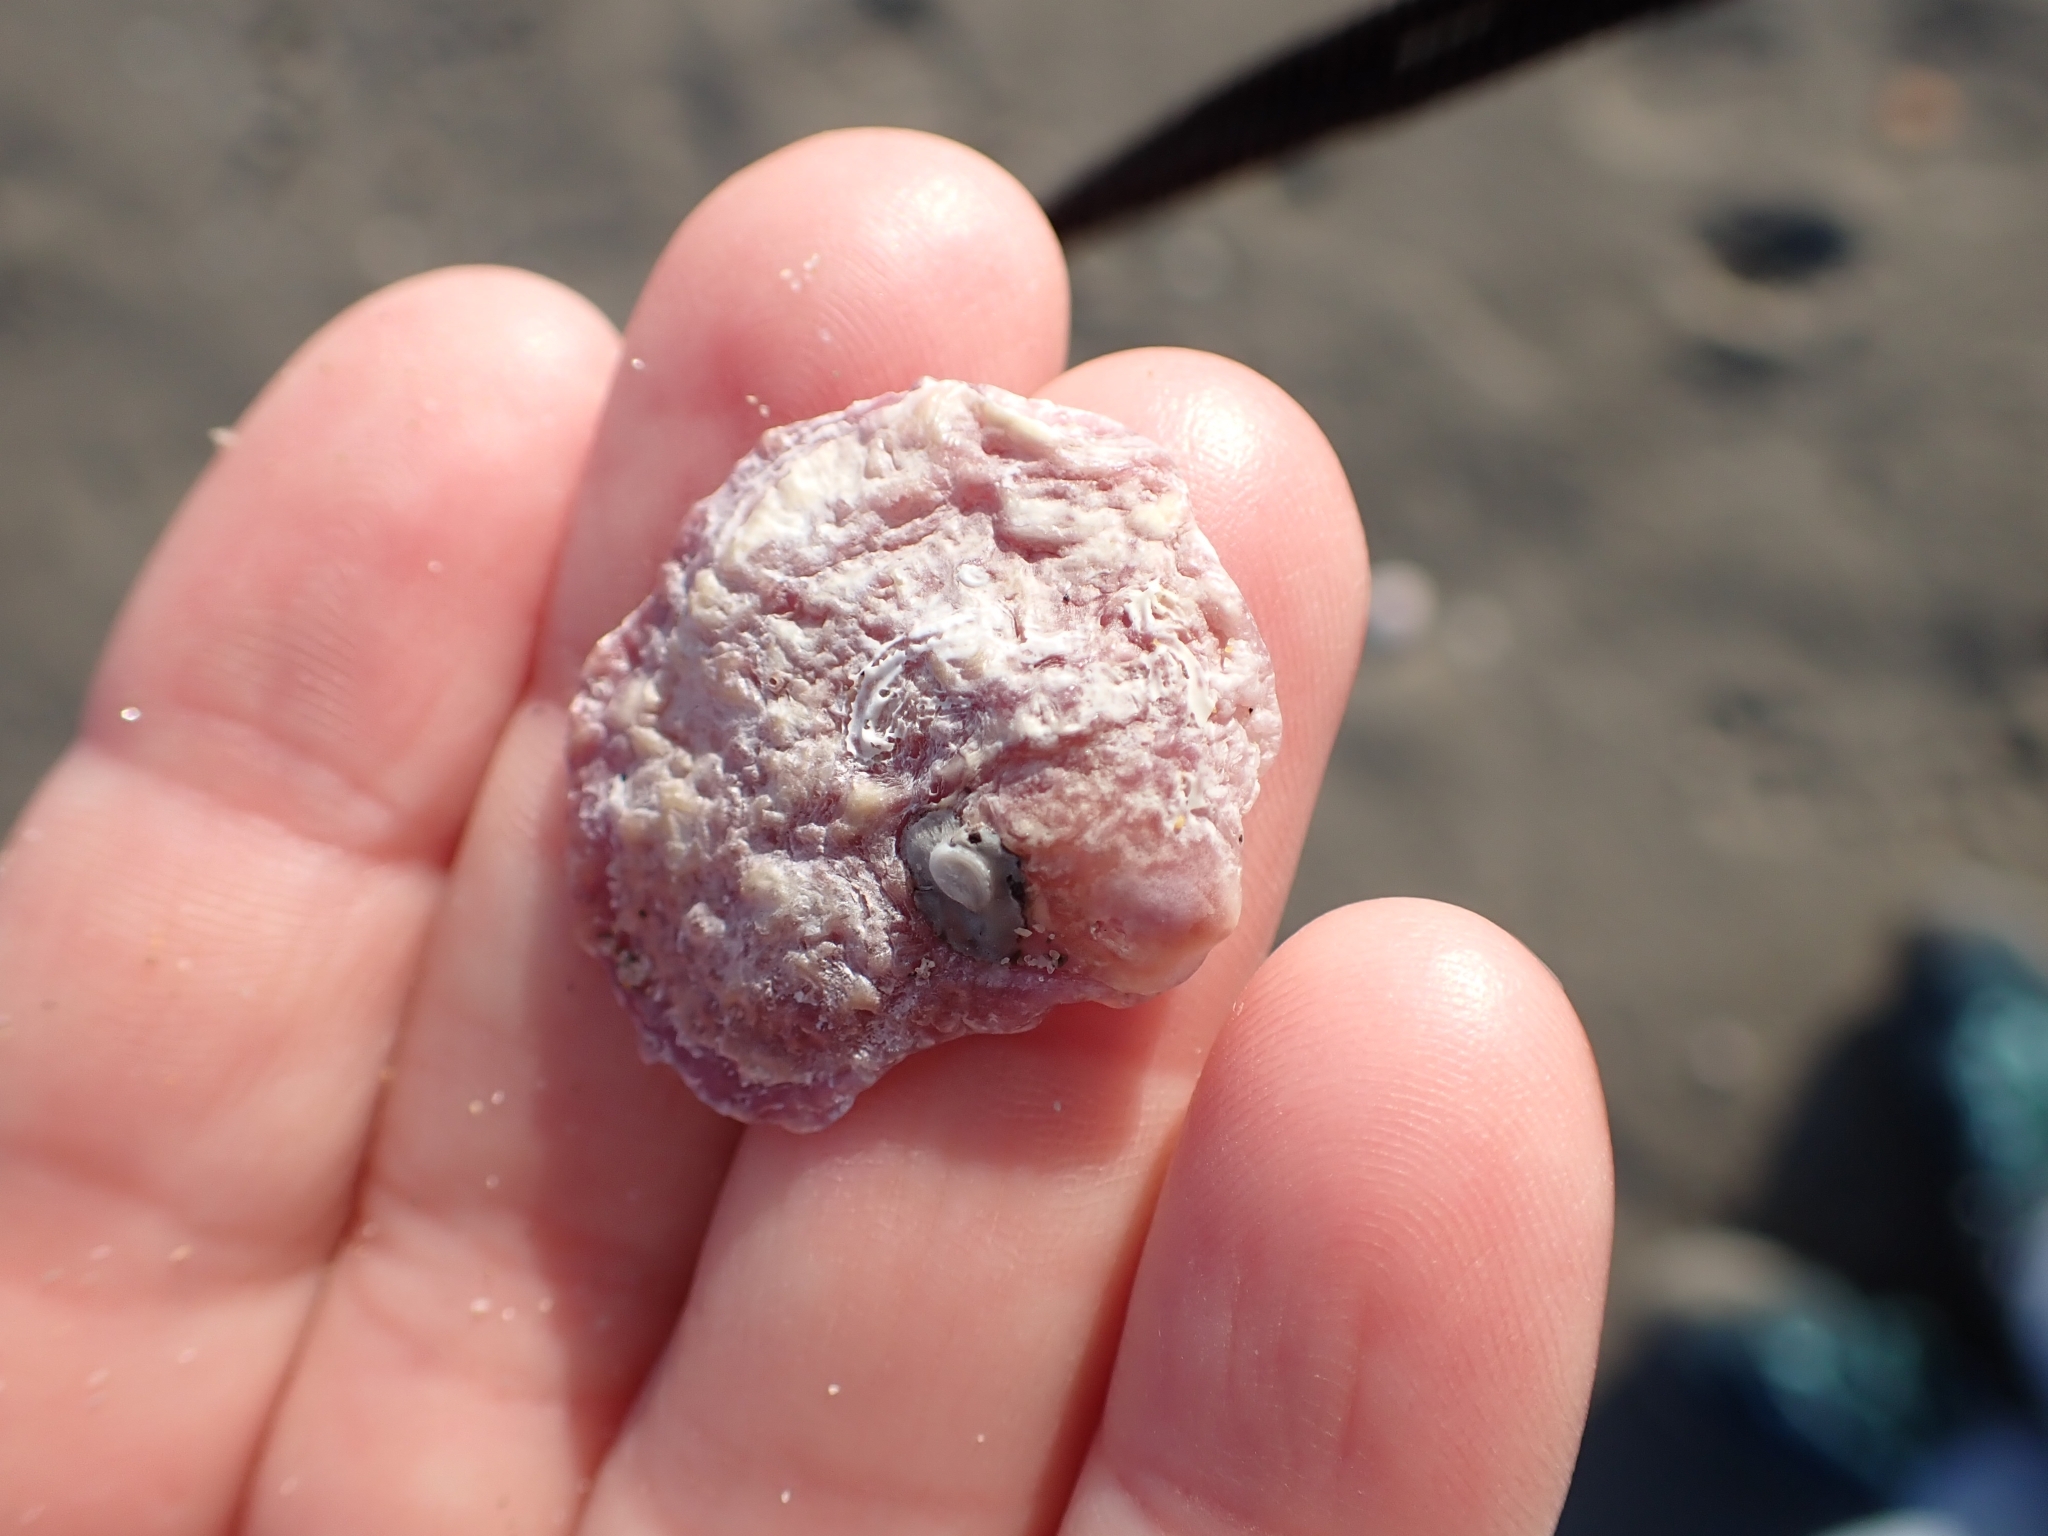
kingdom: Animalia
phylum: Mollusca
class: Bivalvia
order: Pectinida
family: Anomiidae
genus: Anomia
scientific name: Anomia ephippium
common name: Saddle oyster
